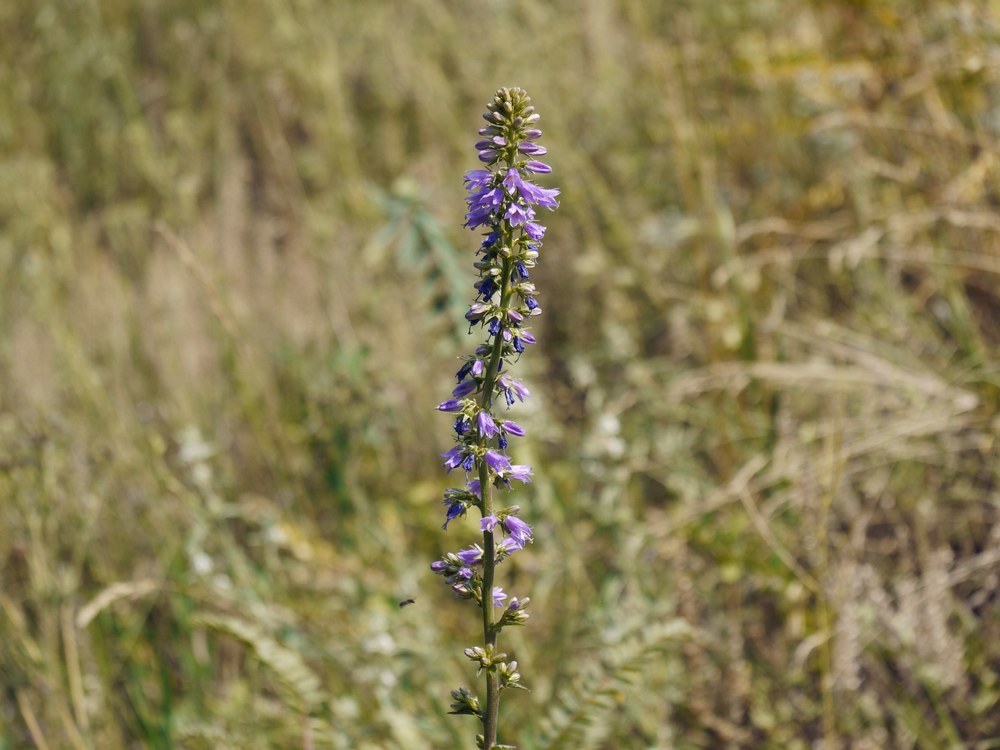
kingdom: Plantae
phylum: Tracheophyta
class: Magnoliopsida
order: Asterales
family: Campanulaceae
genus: Campanula
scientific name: Campanula bononiensis
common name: Pale bellflower
